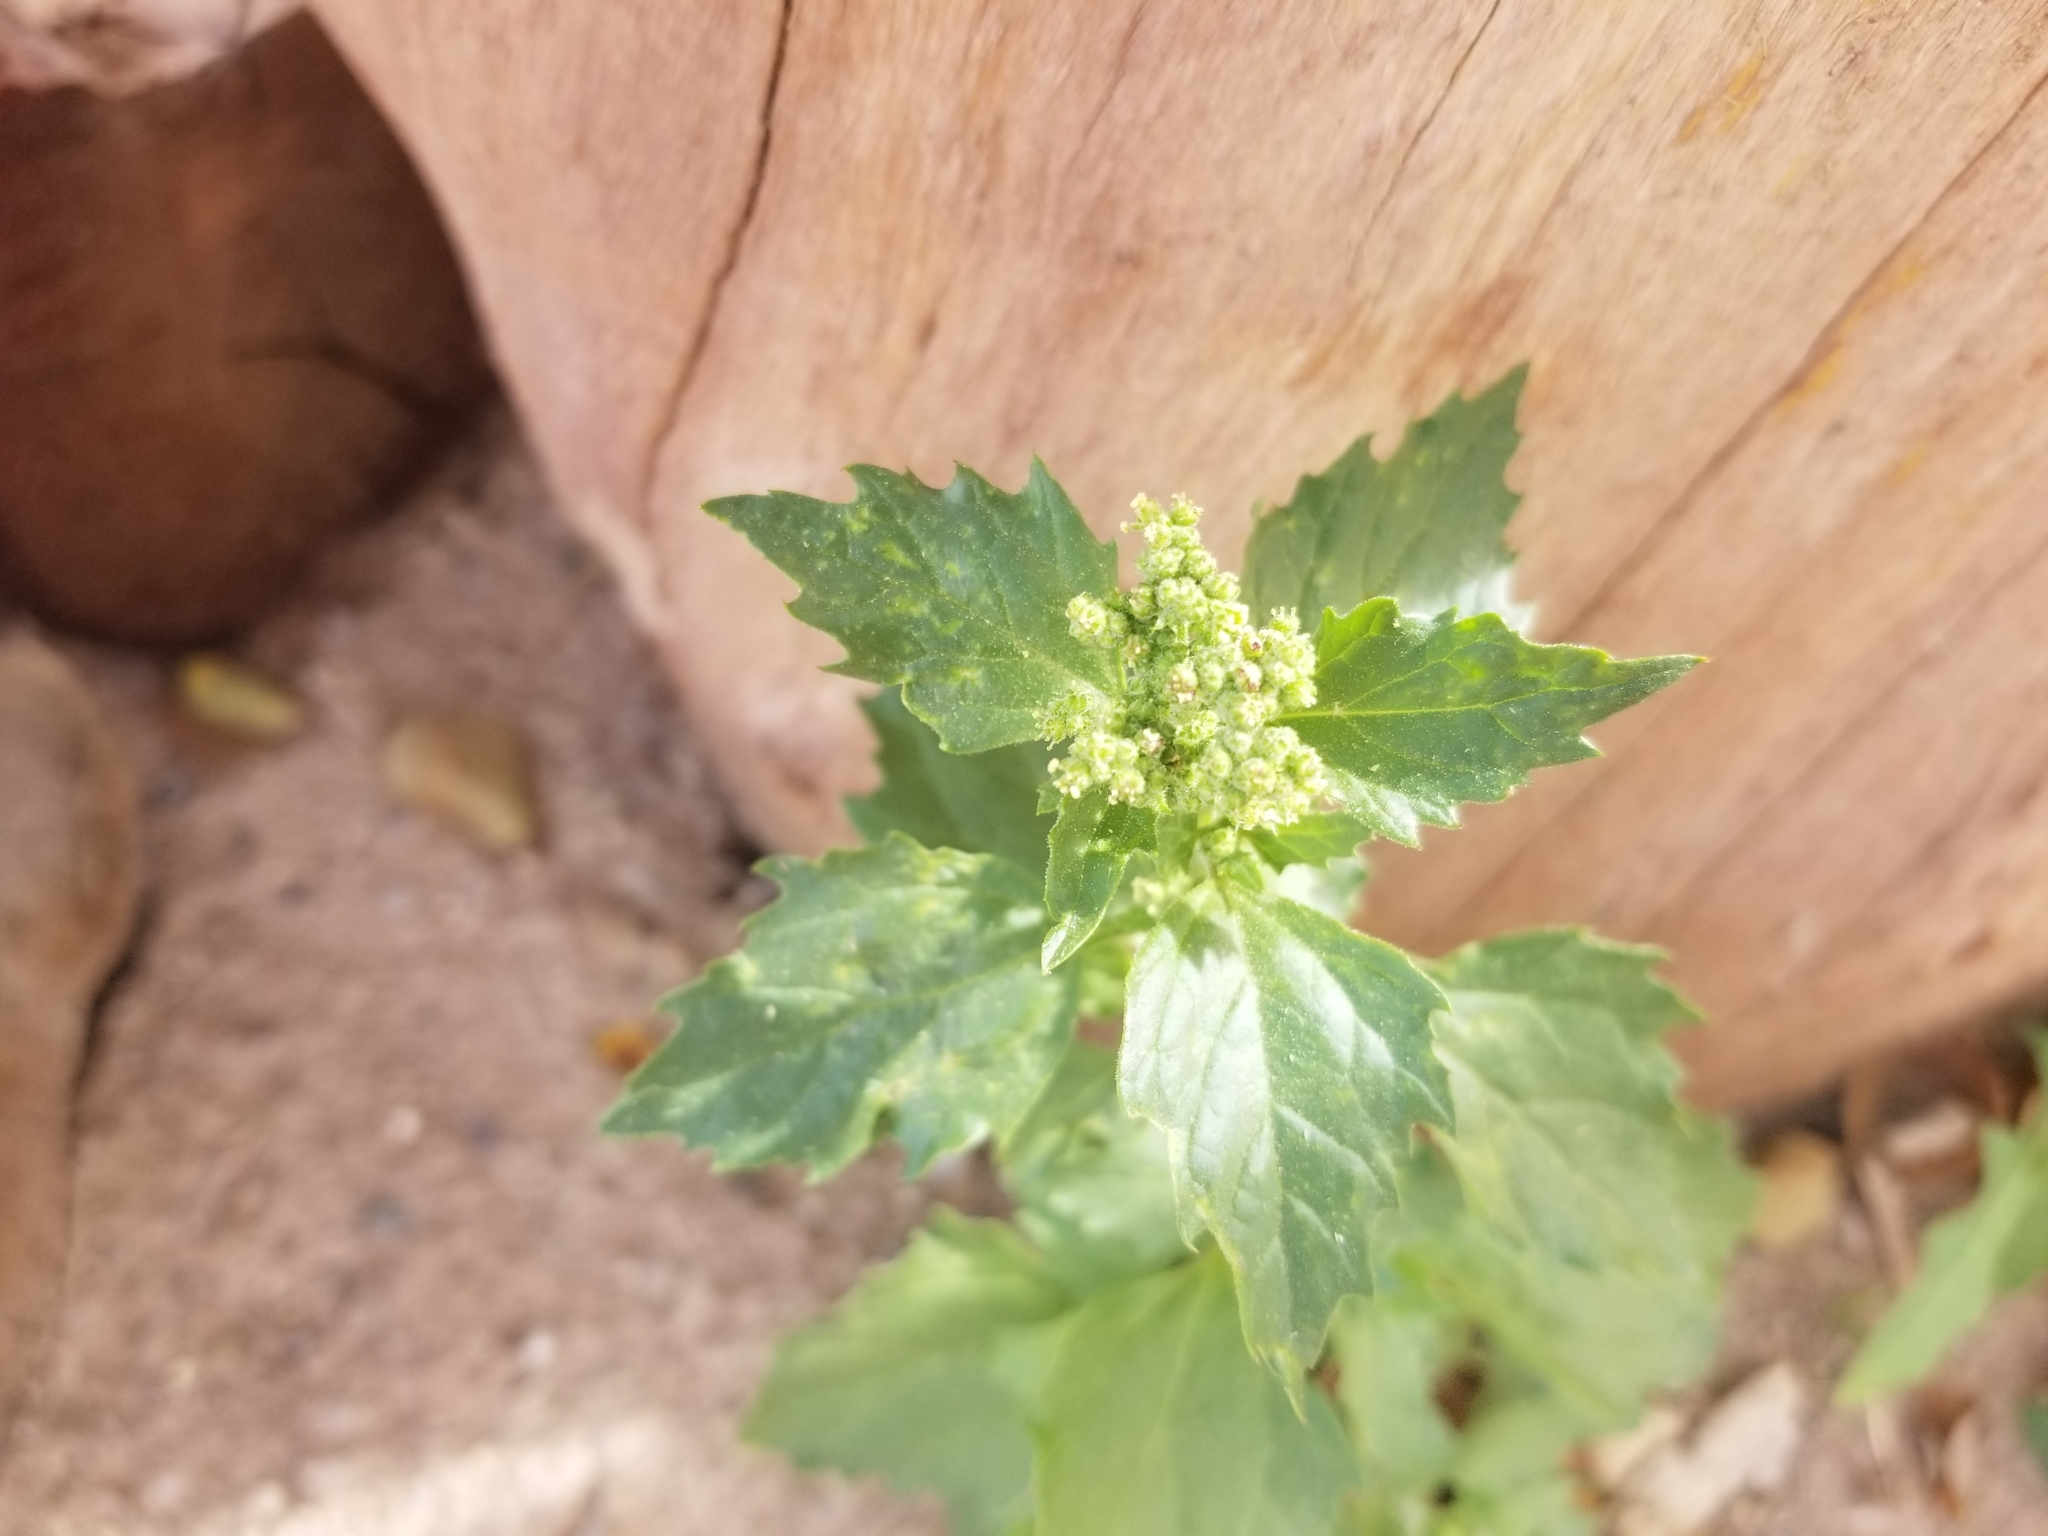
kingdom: Plantae
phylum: Tracheophyta
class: Magnoliopsida
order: Caryophyllales
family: Amaranthaceae
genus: Chenopodiastrum
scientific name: Chenopodiastrum murale
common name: Sowbane
